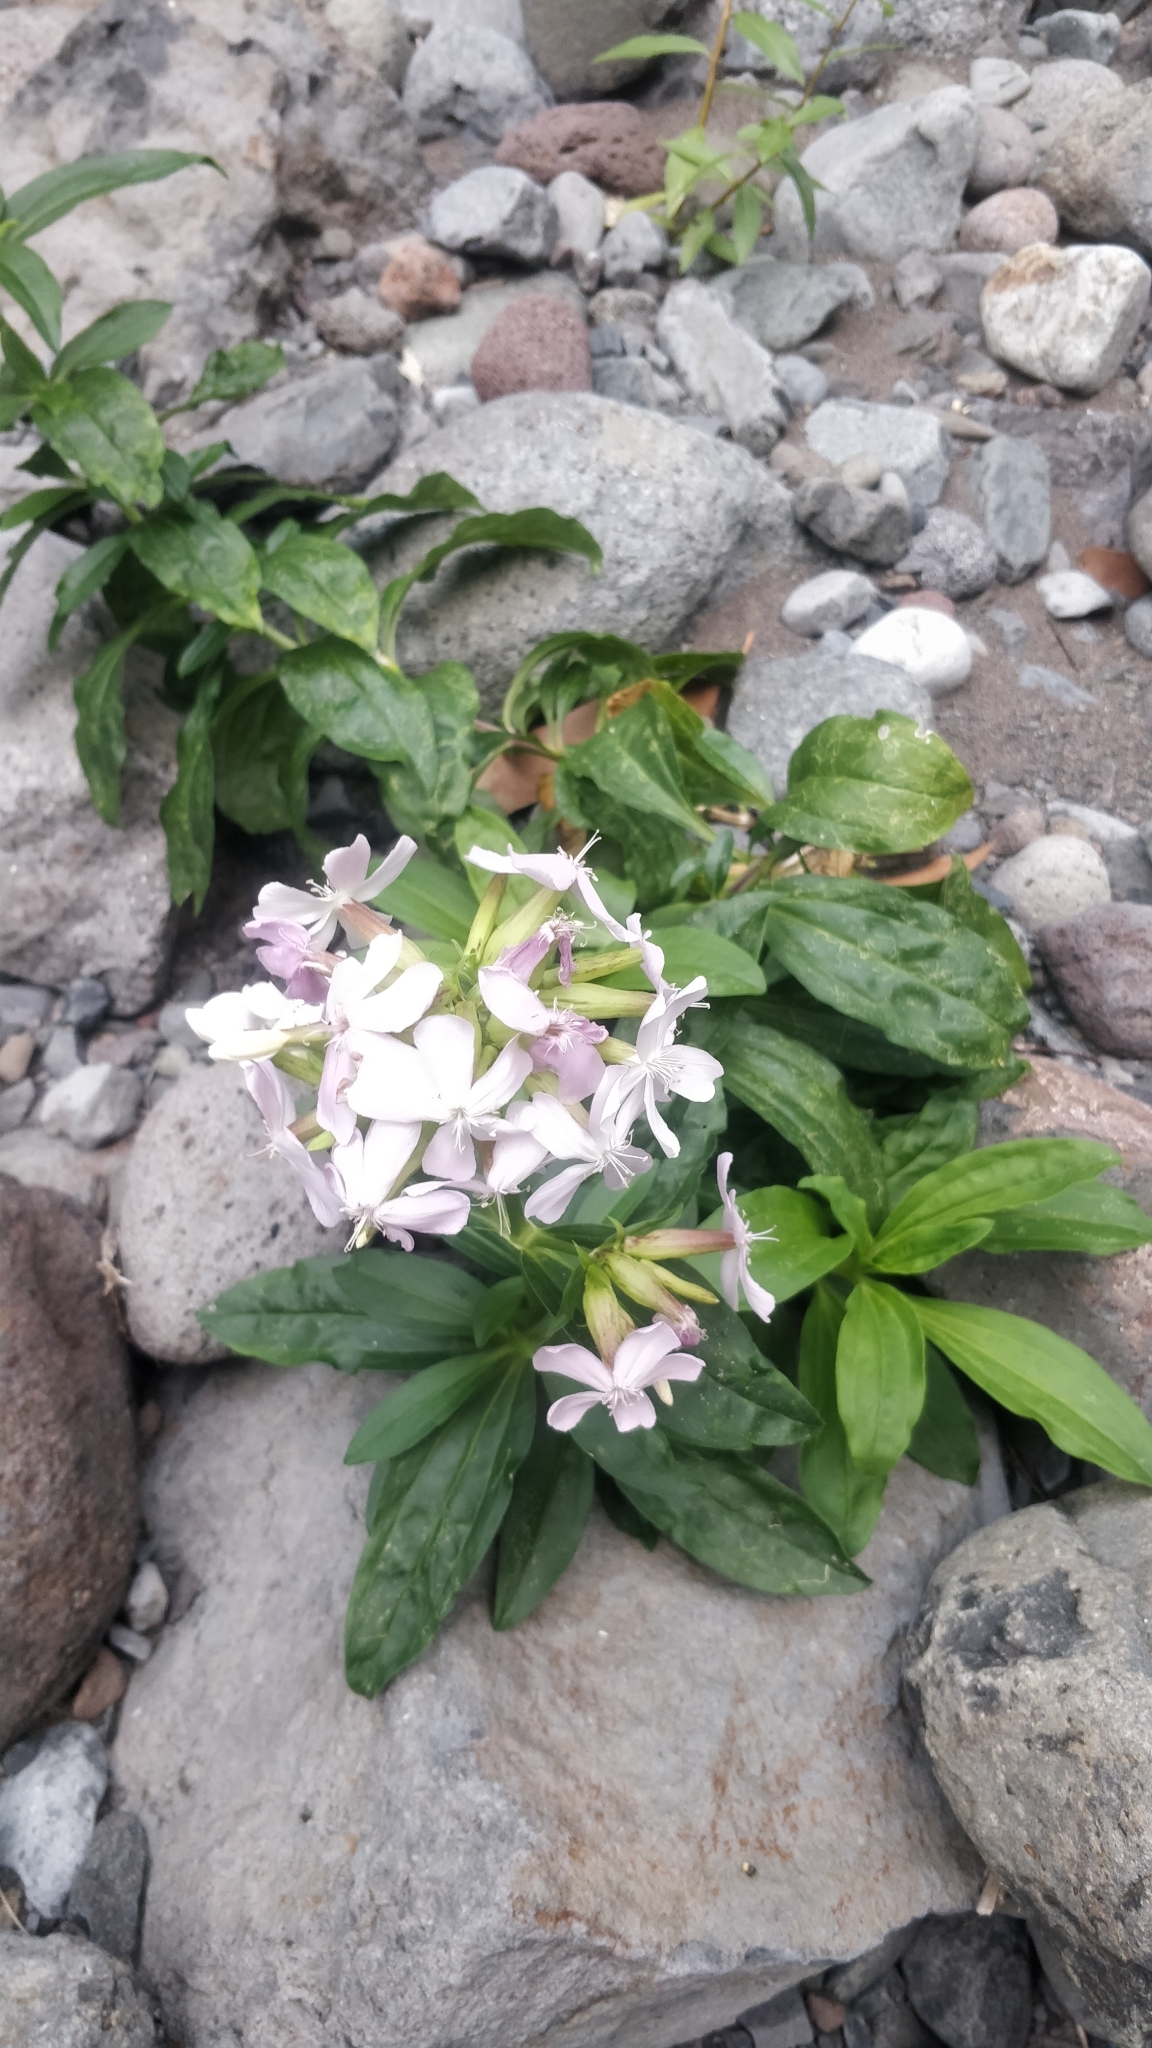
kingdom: Plantae
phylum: Tracheophyta
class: Magnoliopsida
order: Caryophyllales
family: Caryophyllaceae
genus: Saponaria
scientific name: Saponaria officinalis
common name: Soapwort
